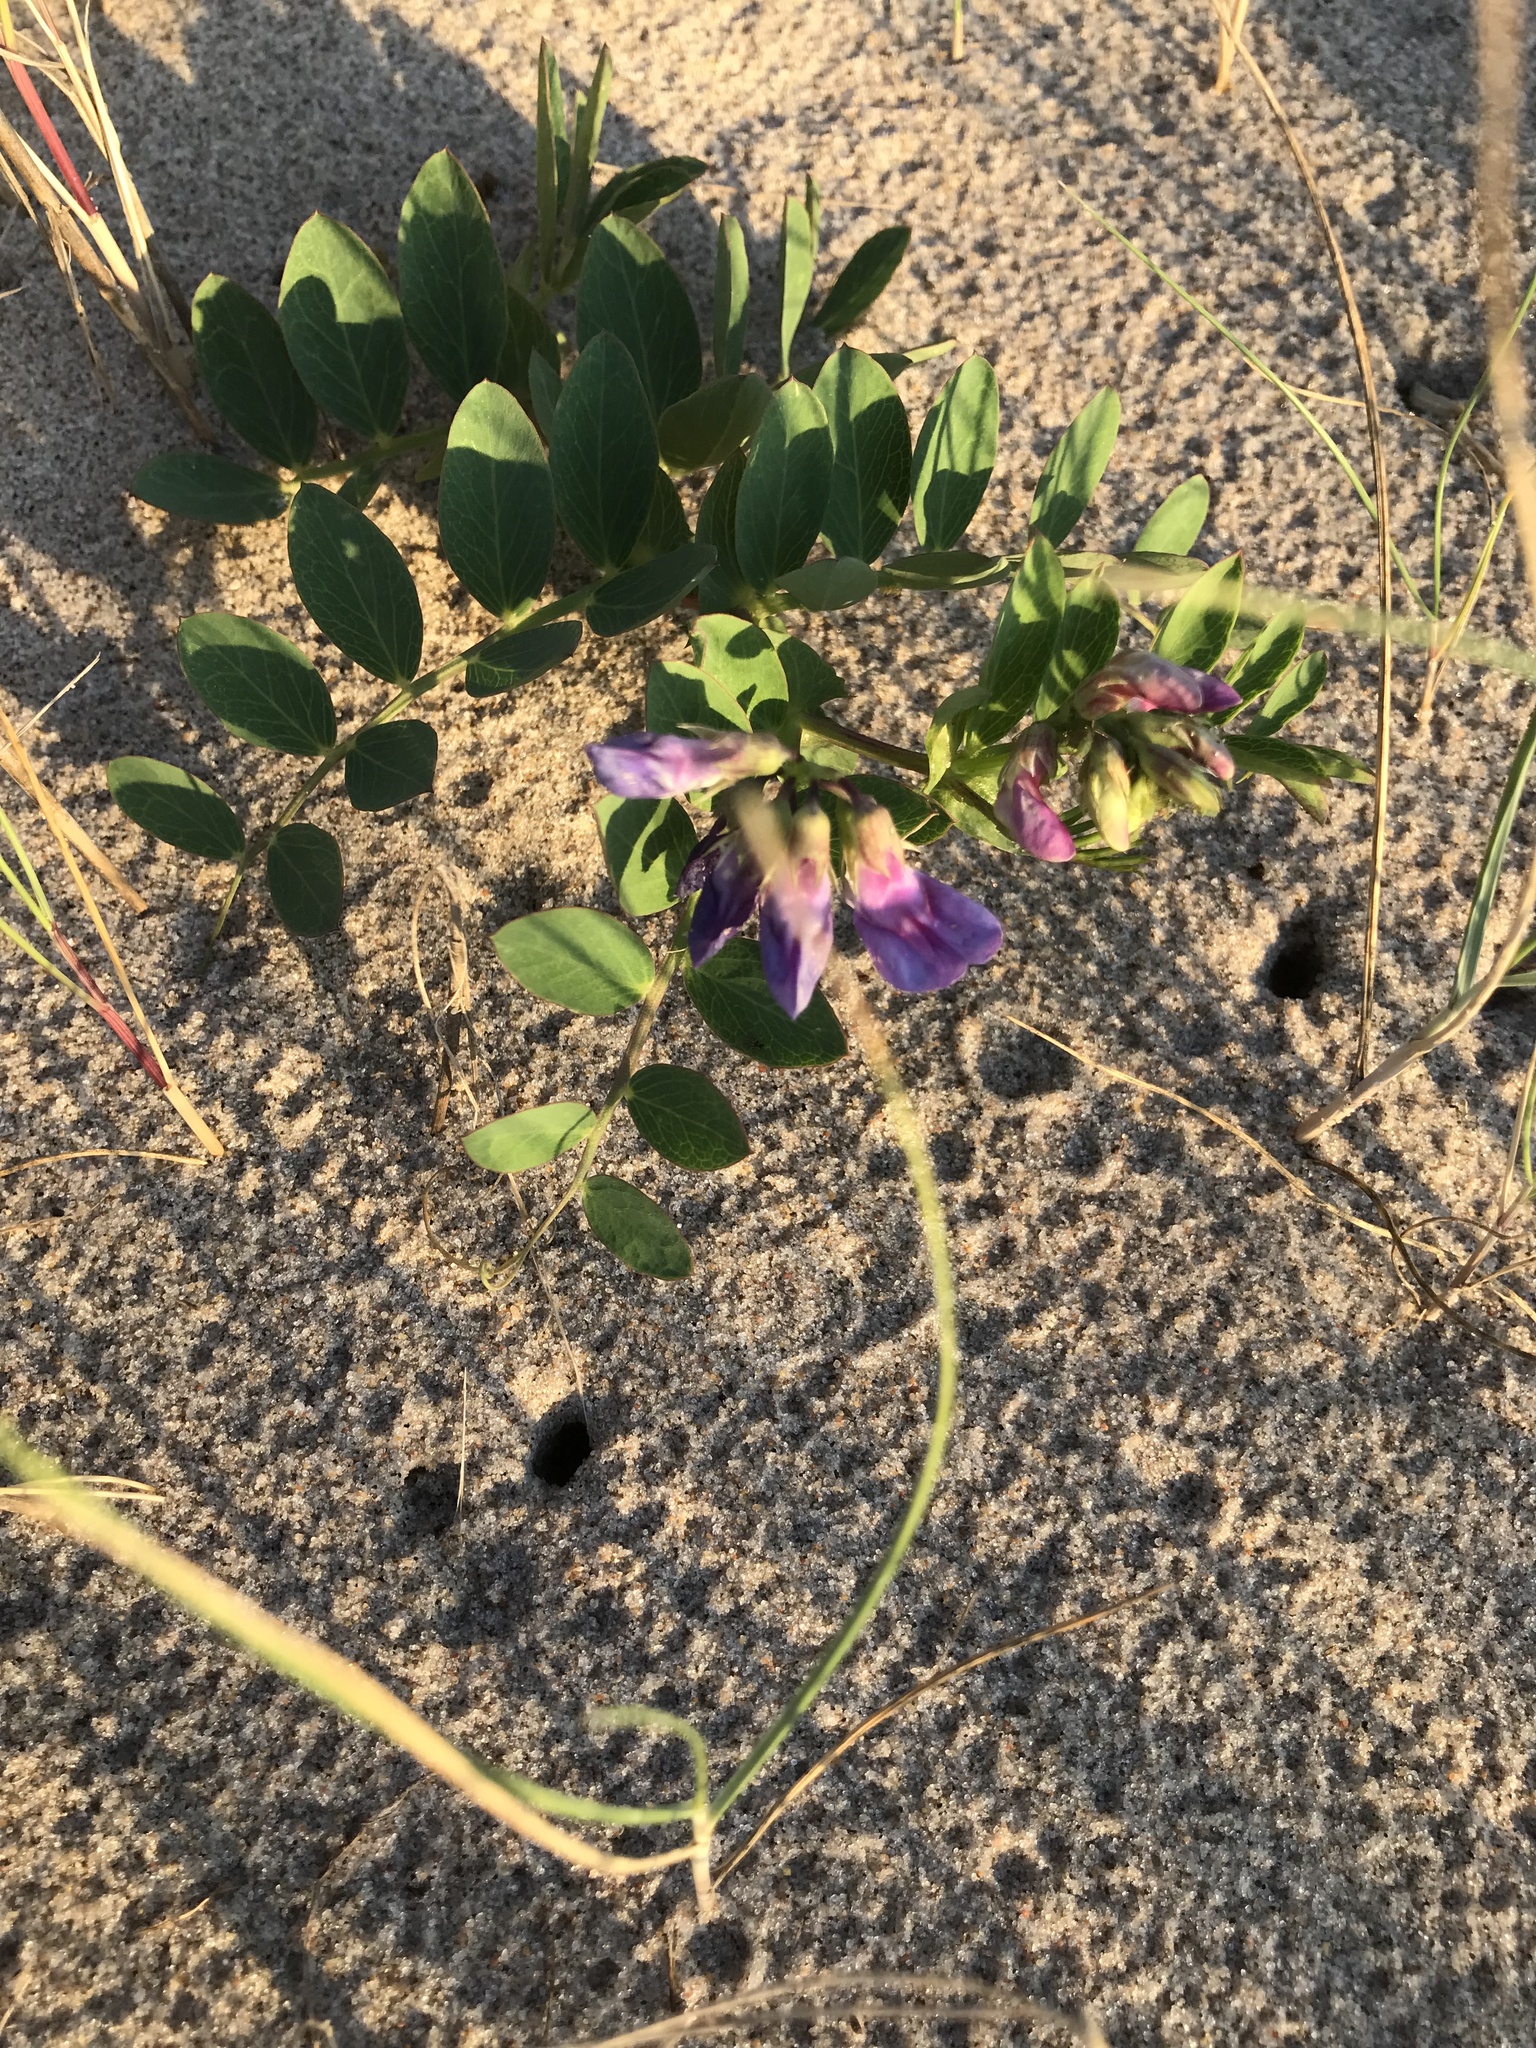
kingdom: Plantae
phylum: Tracheophyta
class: Magnoliopsida
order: Fabales
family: Fabaceae
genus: Lathyrus
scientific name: Lathyrus japonicus
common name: Sea pea
